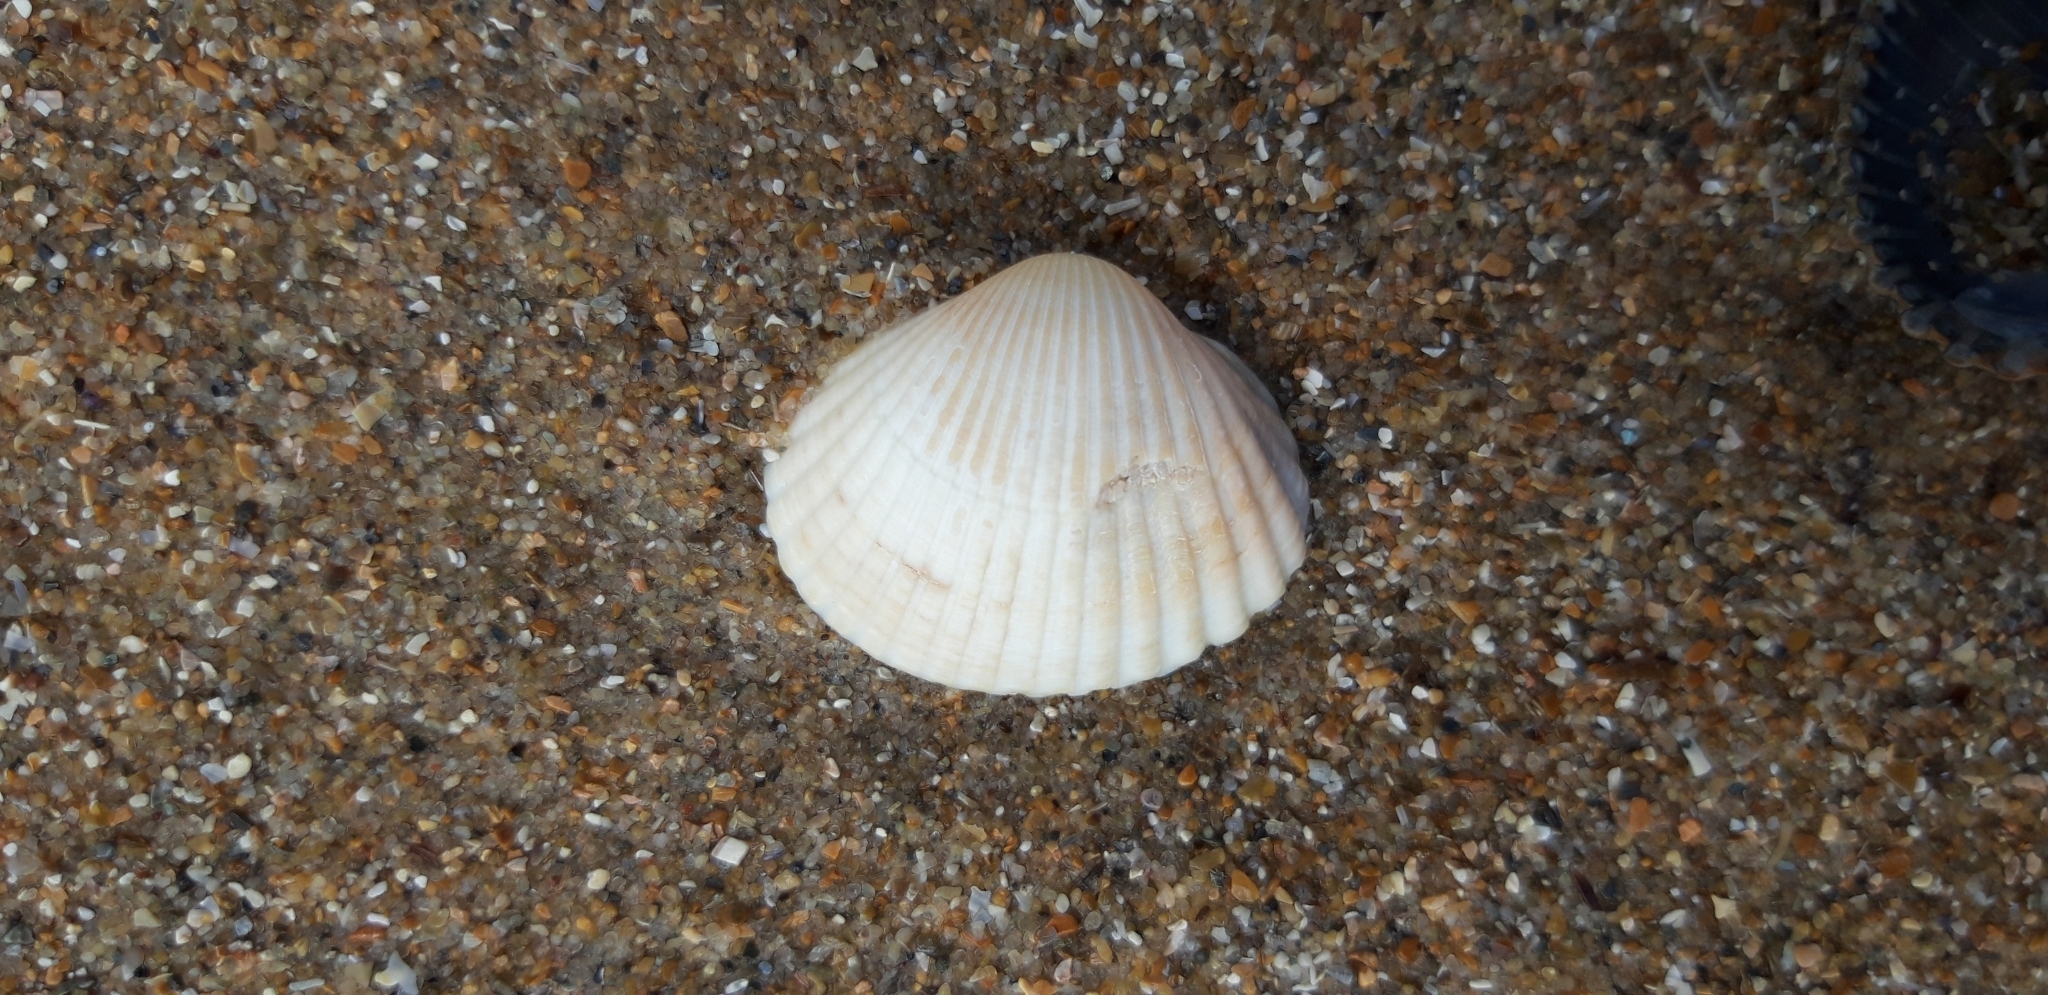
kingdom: Animalia
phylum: Mollusca
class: Bivalvia
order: Cardiida
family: Cardiidae
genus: Cerastoderma
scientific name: Cerastoderma edule
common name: Common cockle
